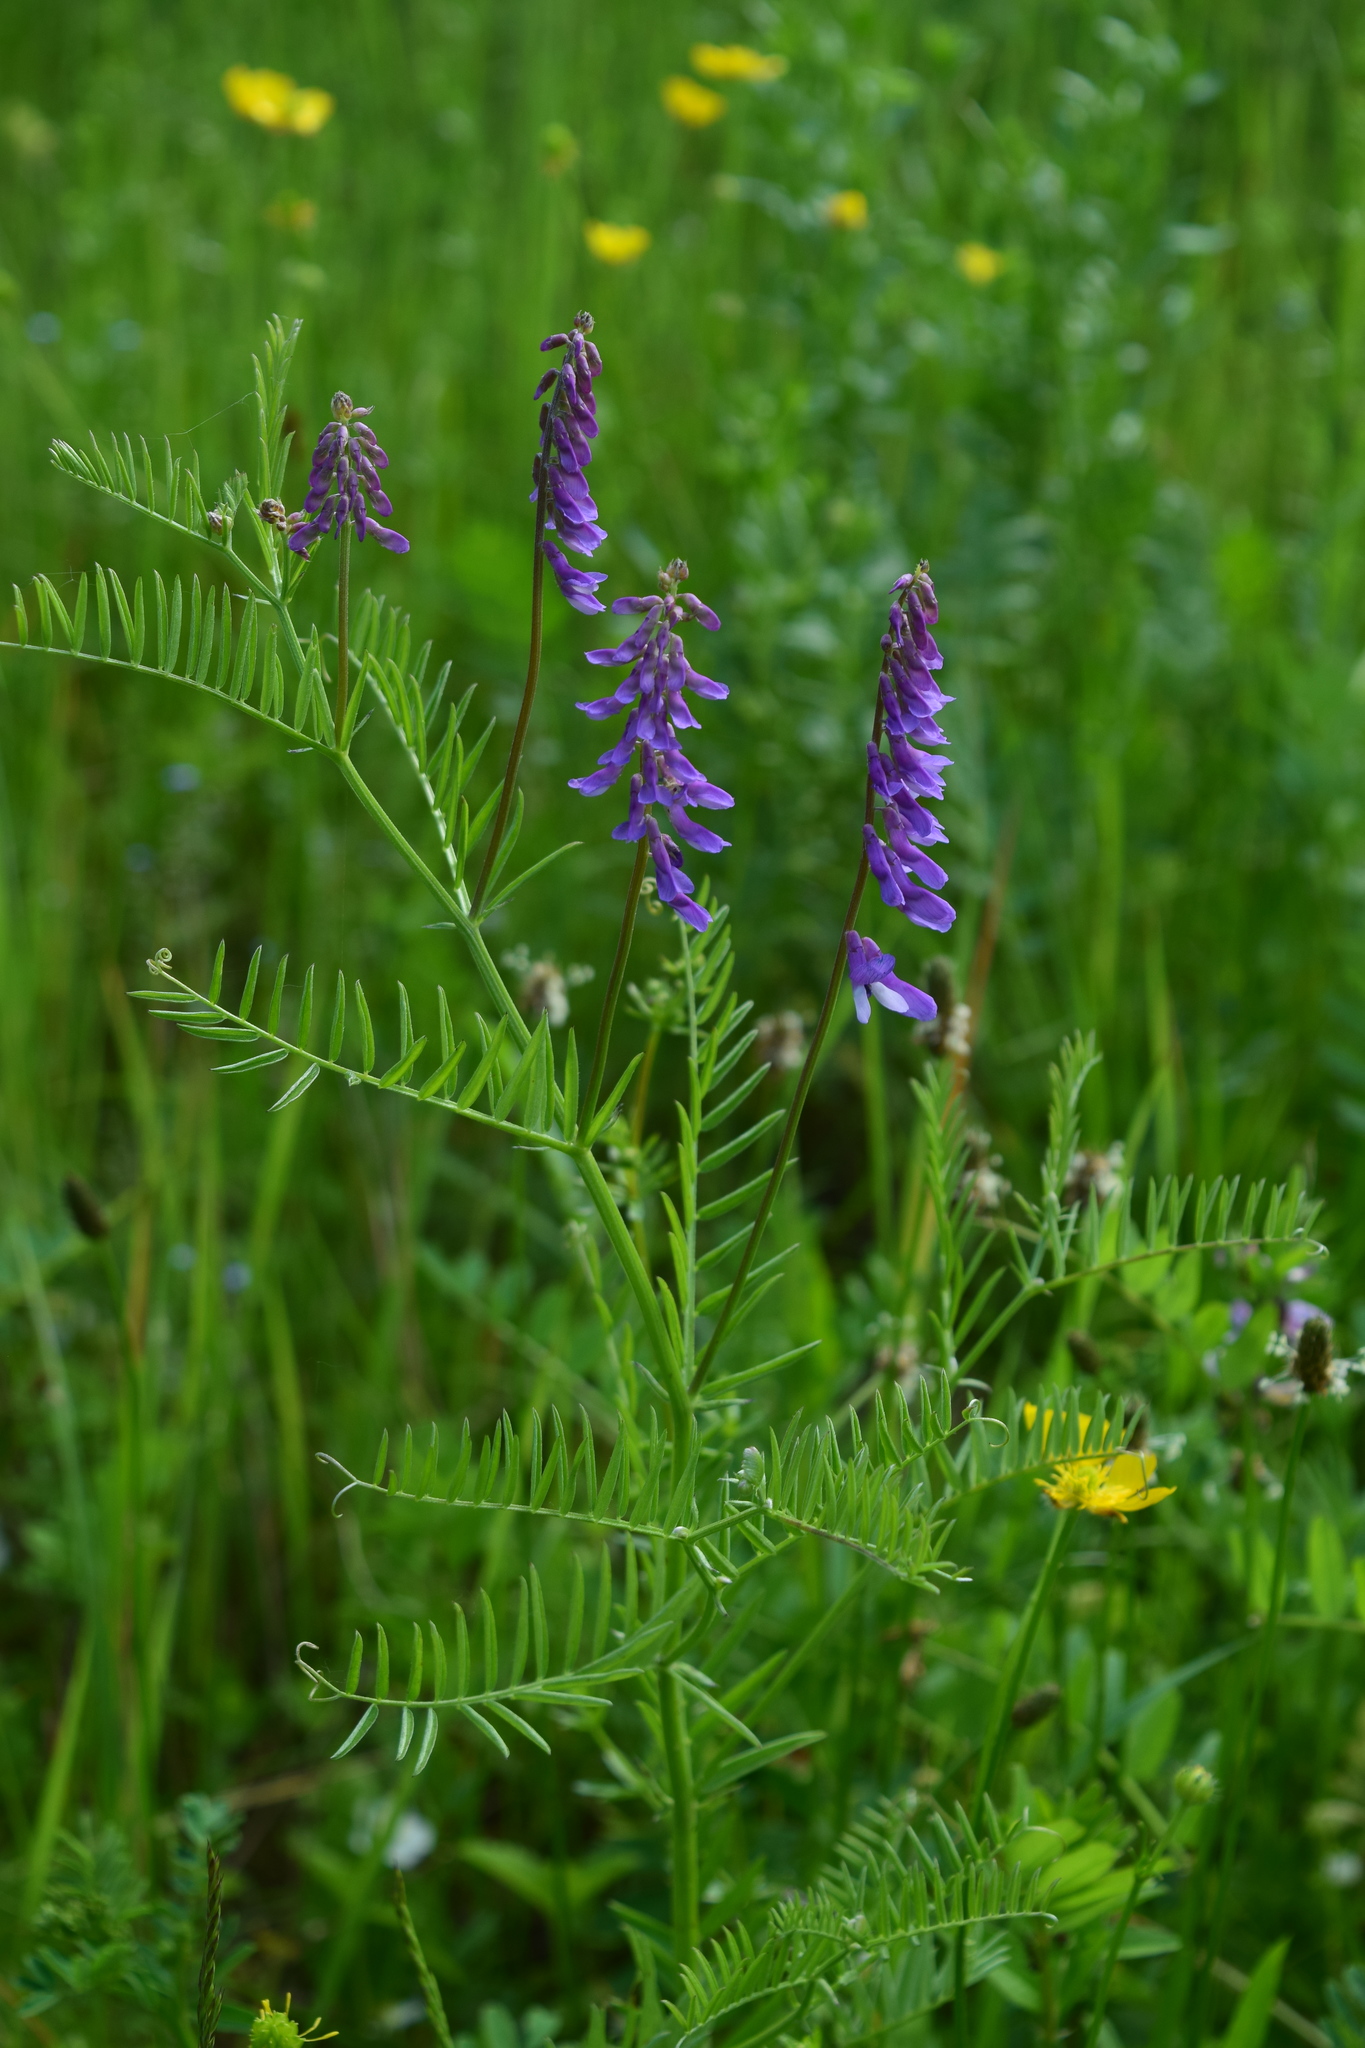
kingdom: Plantae
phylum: Tracheophyta
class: Magnoliopsida
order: Fabales
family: Fabaceae
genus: Vicia
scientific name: Vicia cracca
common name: Bird vetch
